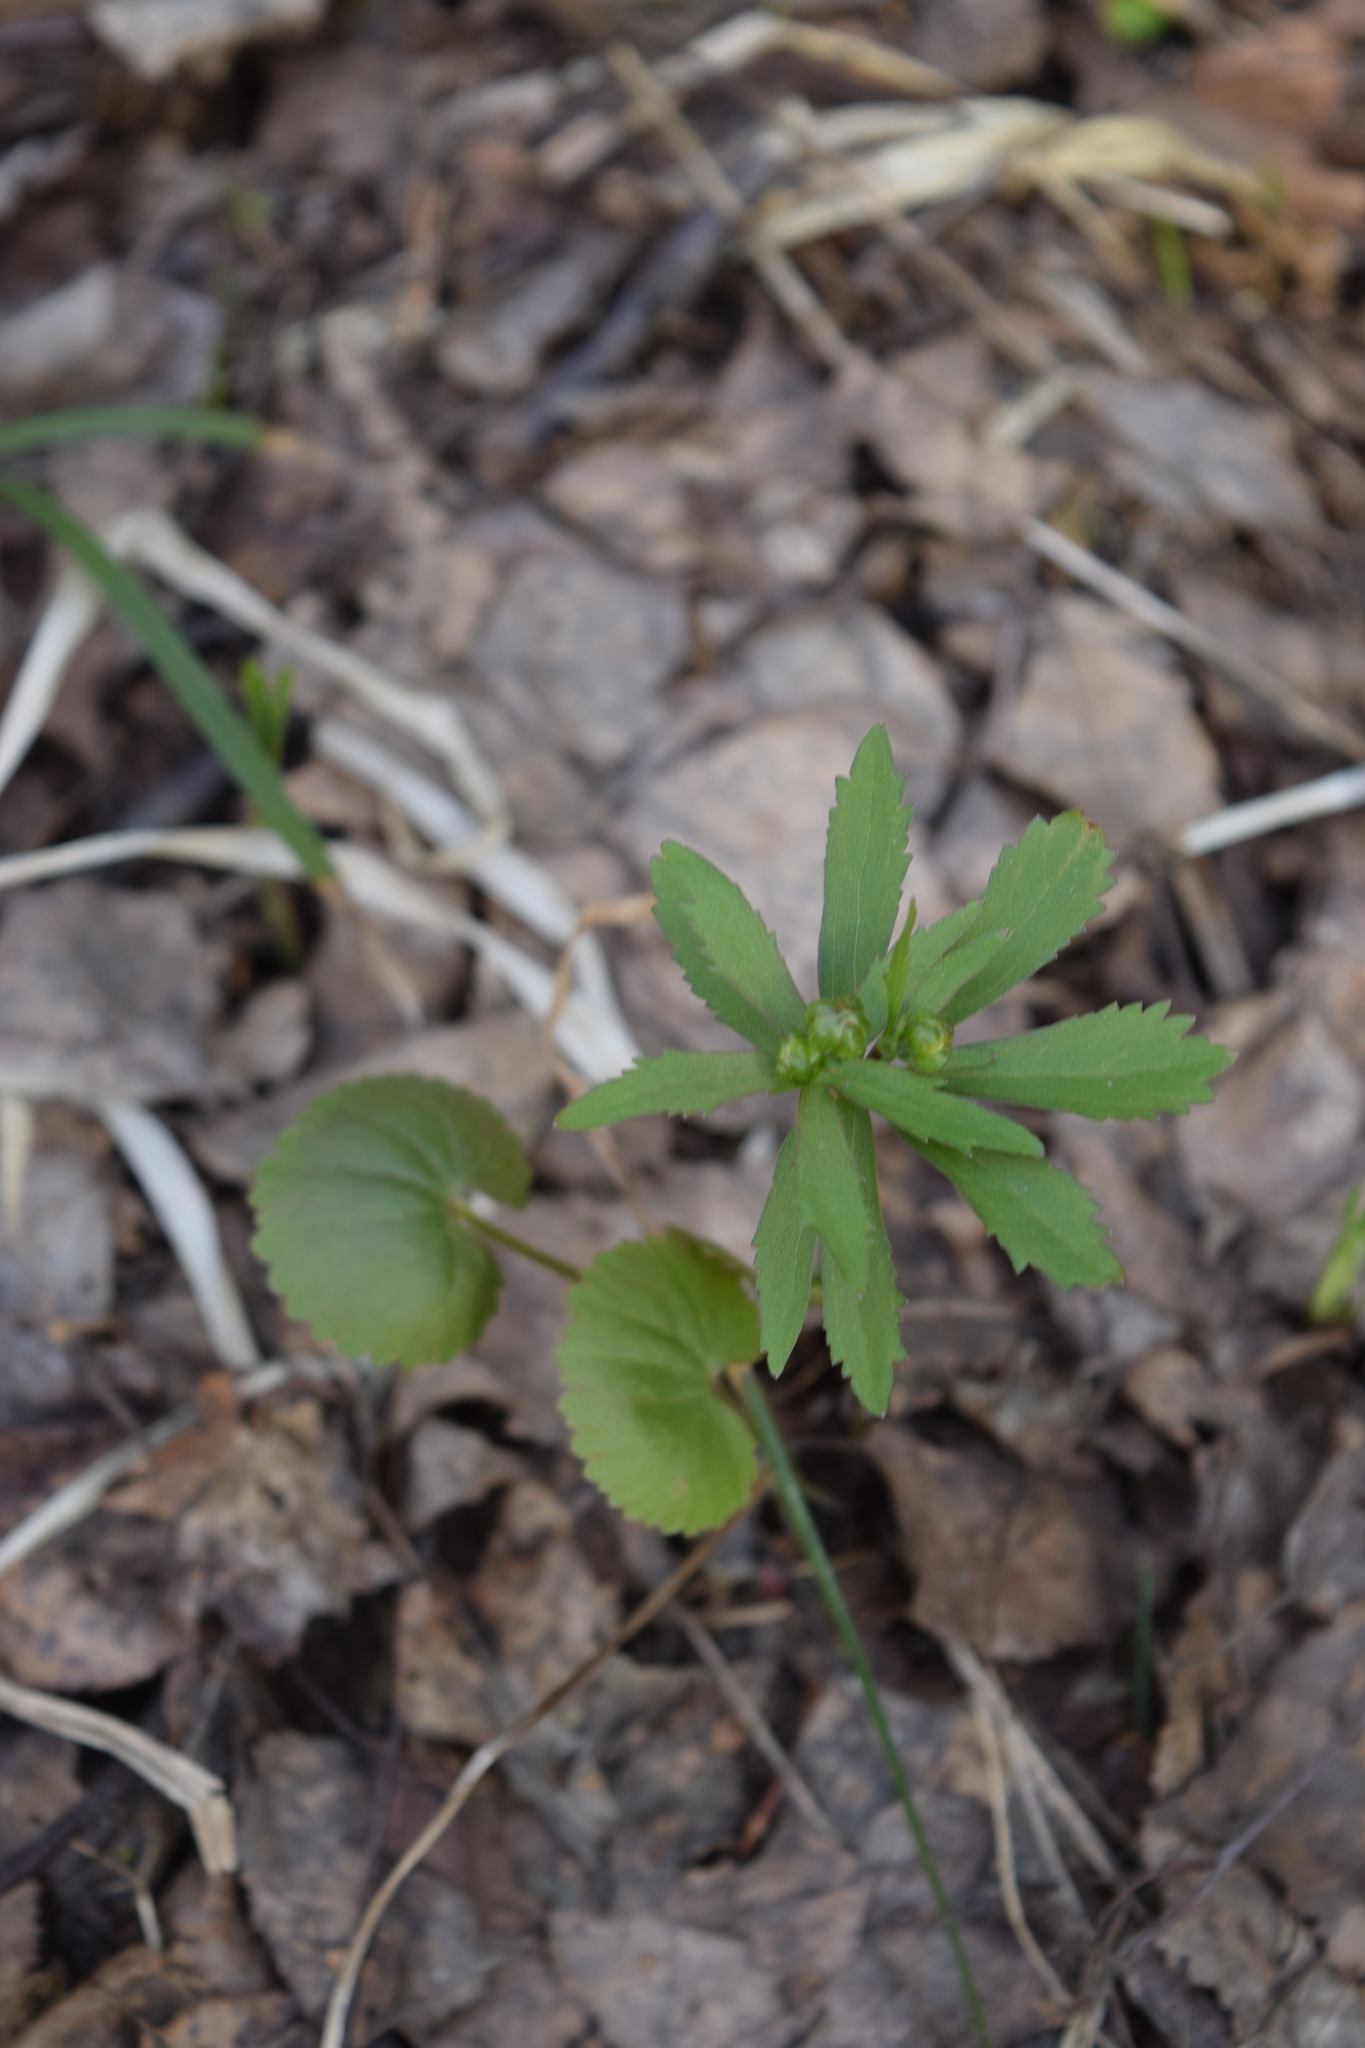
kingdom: Plantae
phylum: Tracheophyta
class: Magnoliopsida
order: Ranunculales
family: Ranunculaceae
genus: Ranunculus
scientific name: Ranunculus cassubicus
